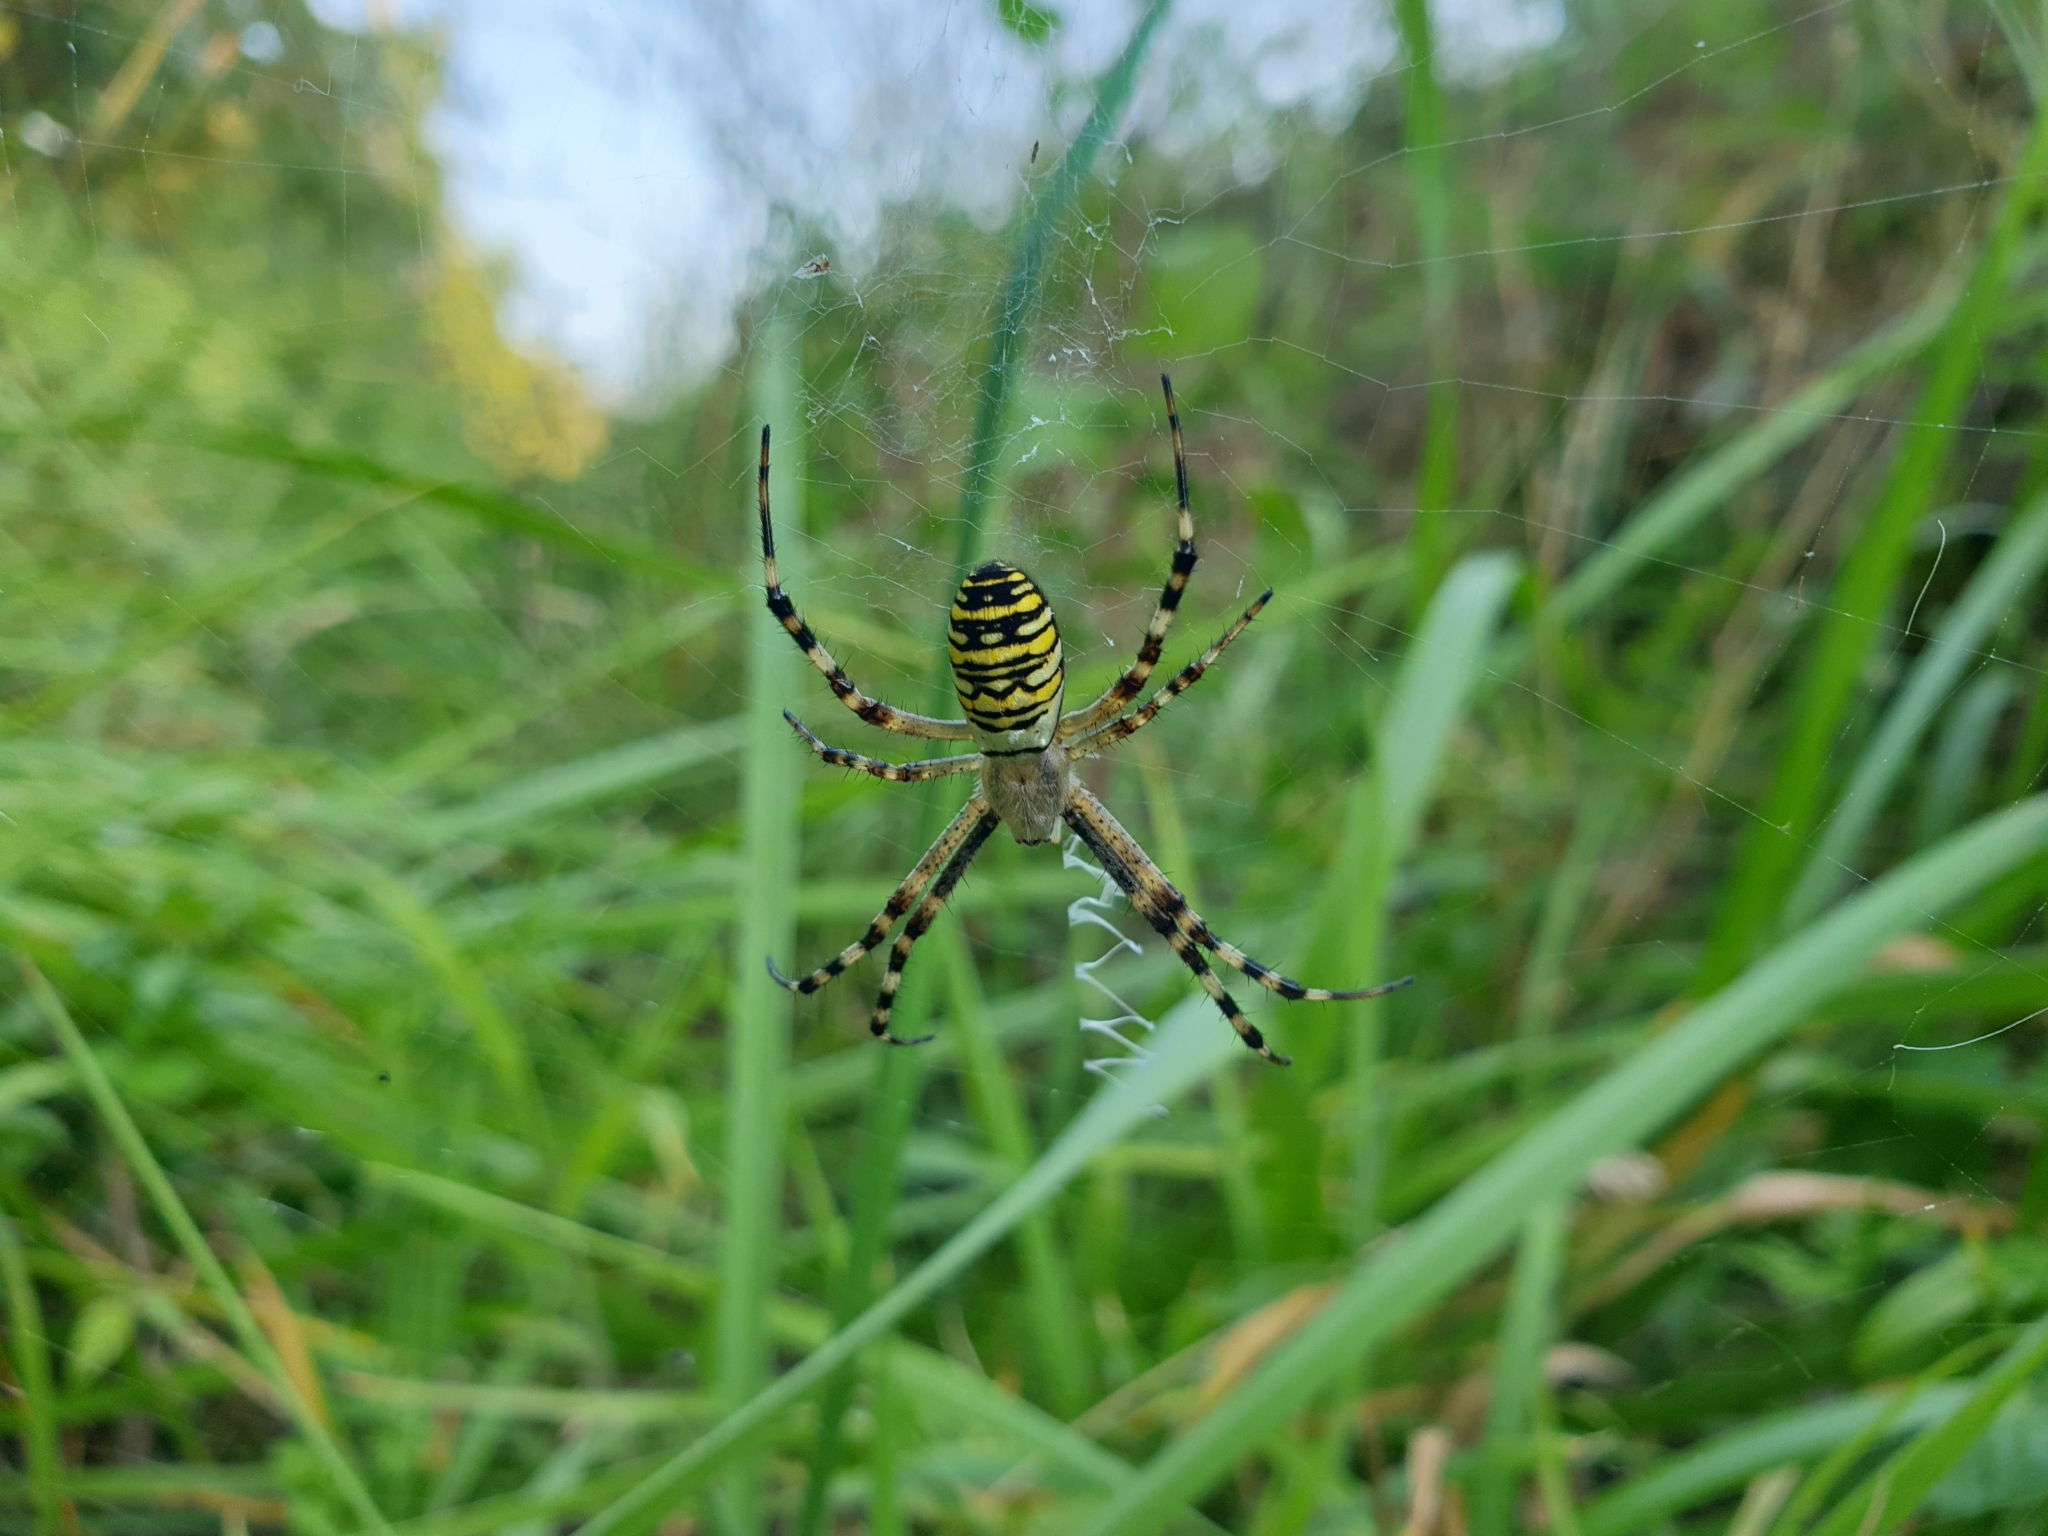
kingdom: Animalia
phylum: Arthropoda
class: Arachnida
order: Araneae
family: Araneidae
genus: Argiope
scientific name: Argiope bruennichi
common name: Wasp spider
